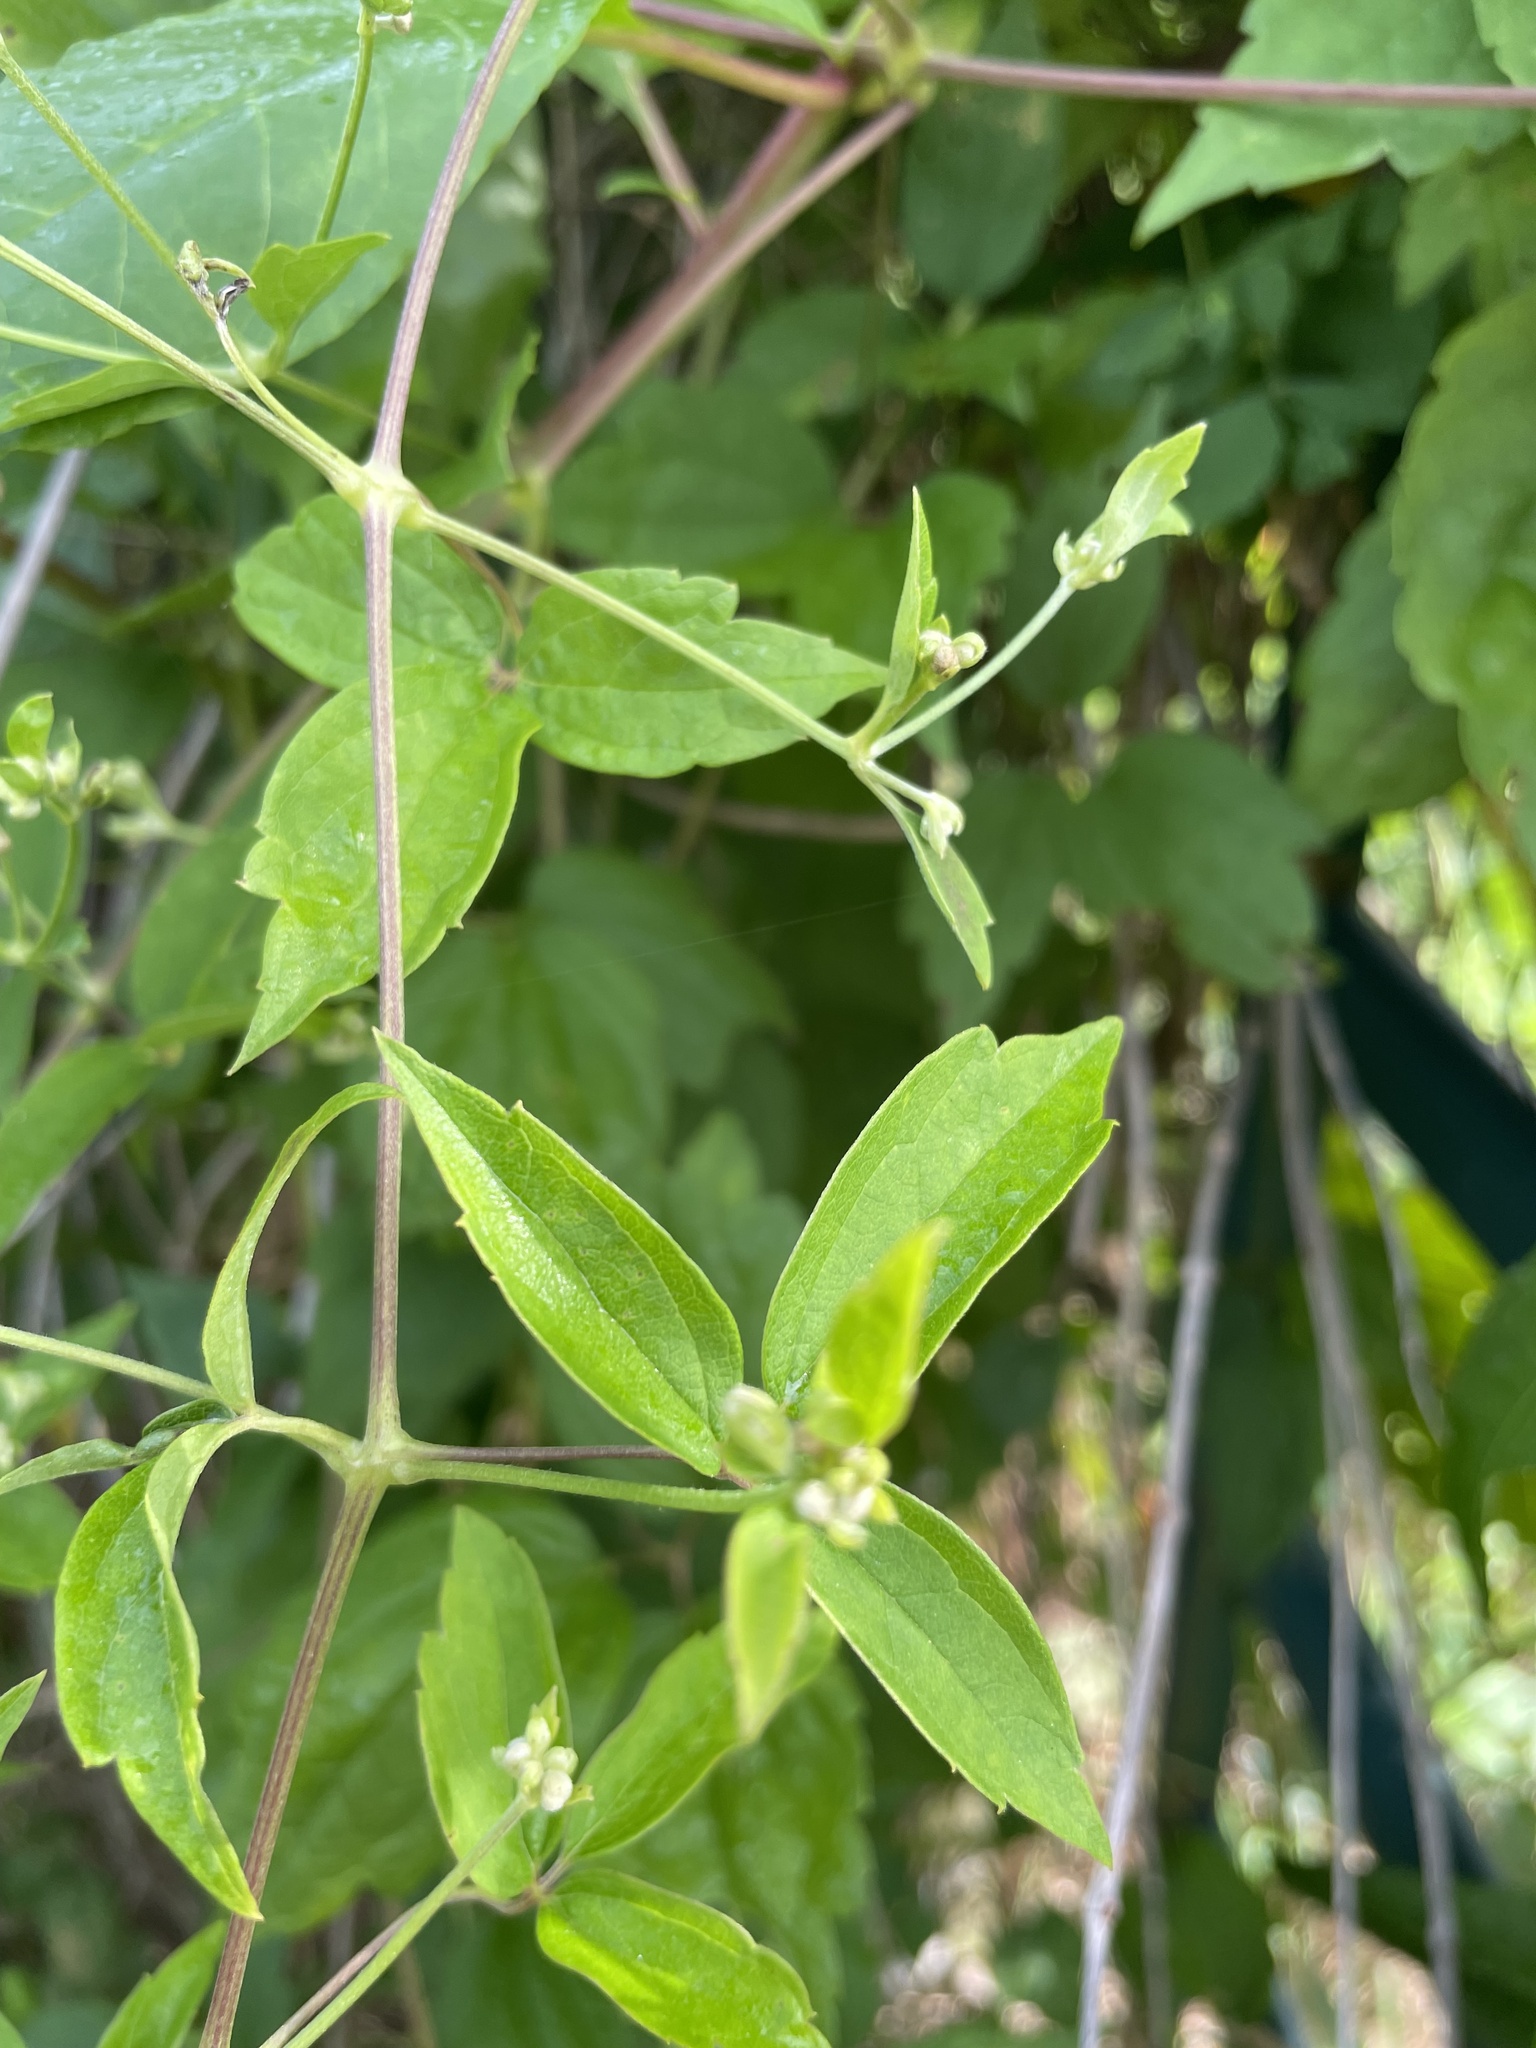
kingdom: Plantae
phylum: Tracheophyta
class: Magnoliopsida
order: Ranunculales
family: Ranunculaceae
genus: Clematis
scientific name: Clematis virginiana
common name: Virgin's-bower
